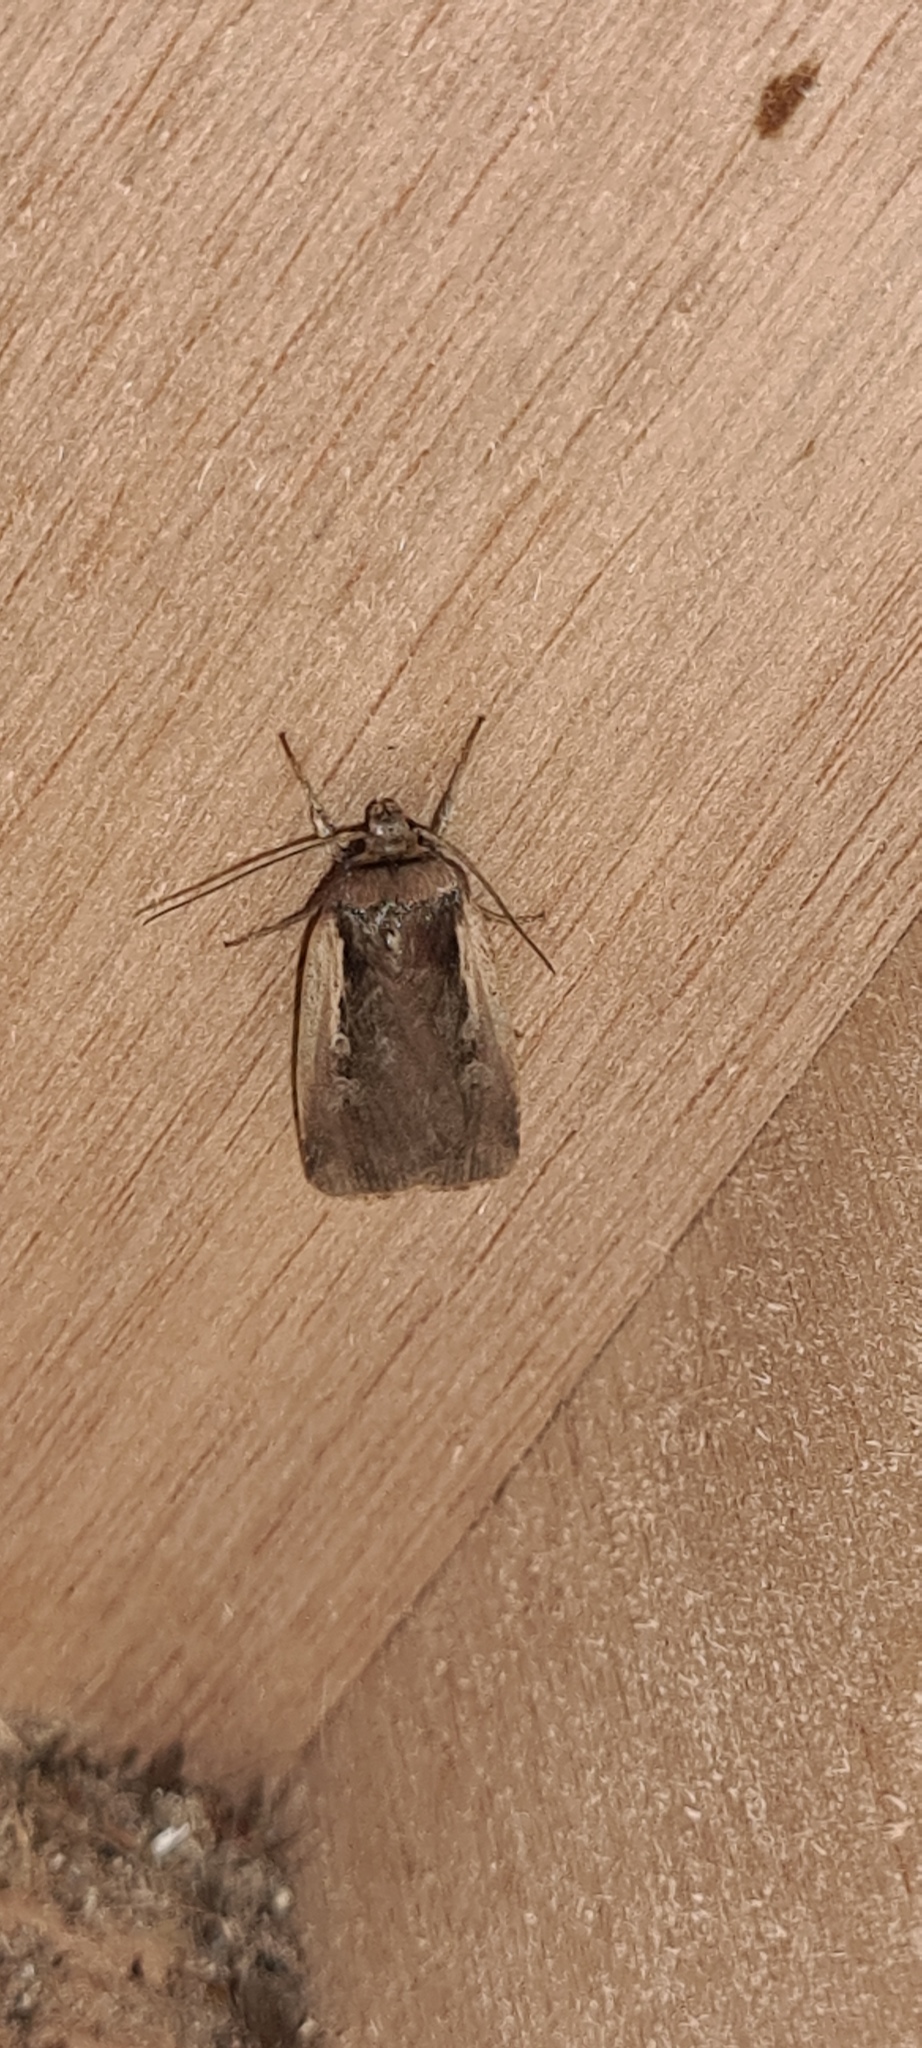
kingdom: Animalia
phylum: Arthropoda
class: Insecta
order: Lepidoptera
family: Noctuidae
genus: Ochropleura
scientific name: Ochropleura plecta
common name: Flame shoulder
